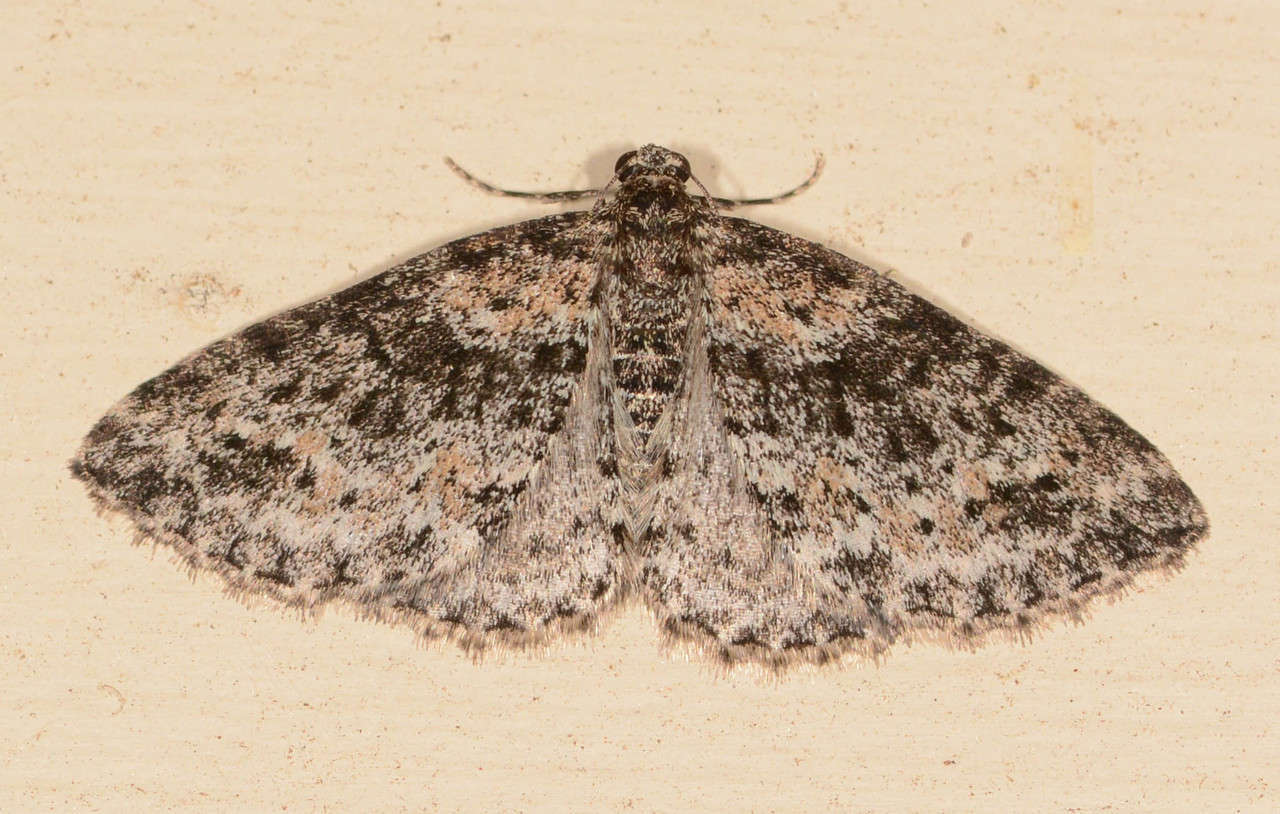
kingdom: Animalia
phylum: Arthropoda
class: Insecta
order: Lepidoptera
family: Geometridae
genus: Aponotoreas
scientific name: Aponotoreas petrodes
